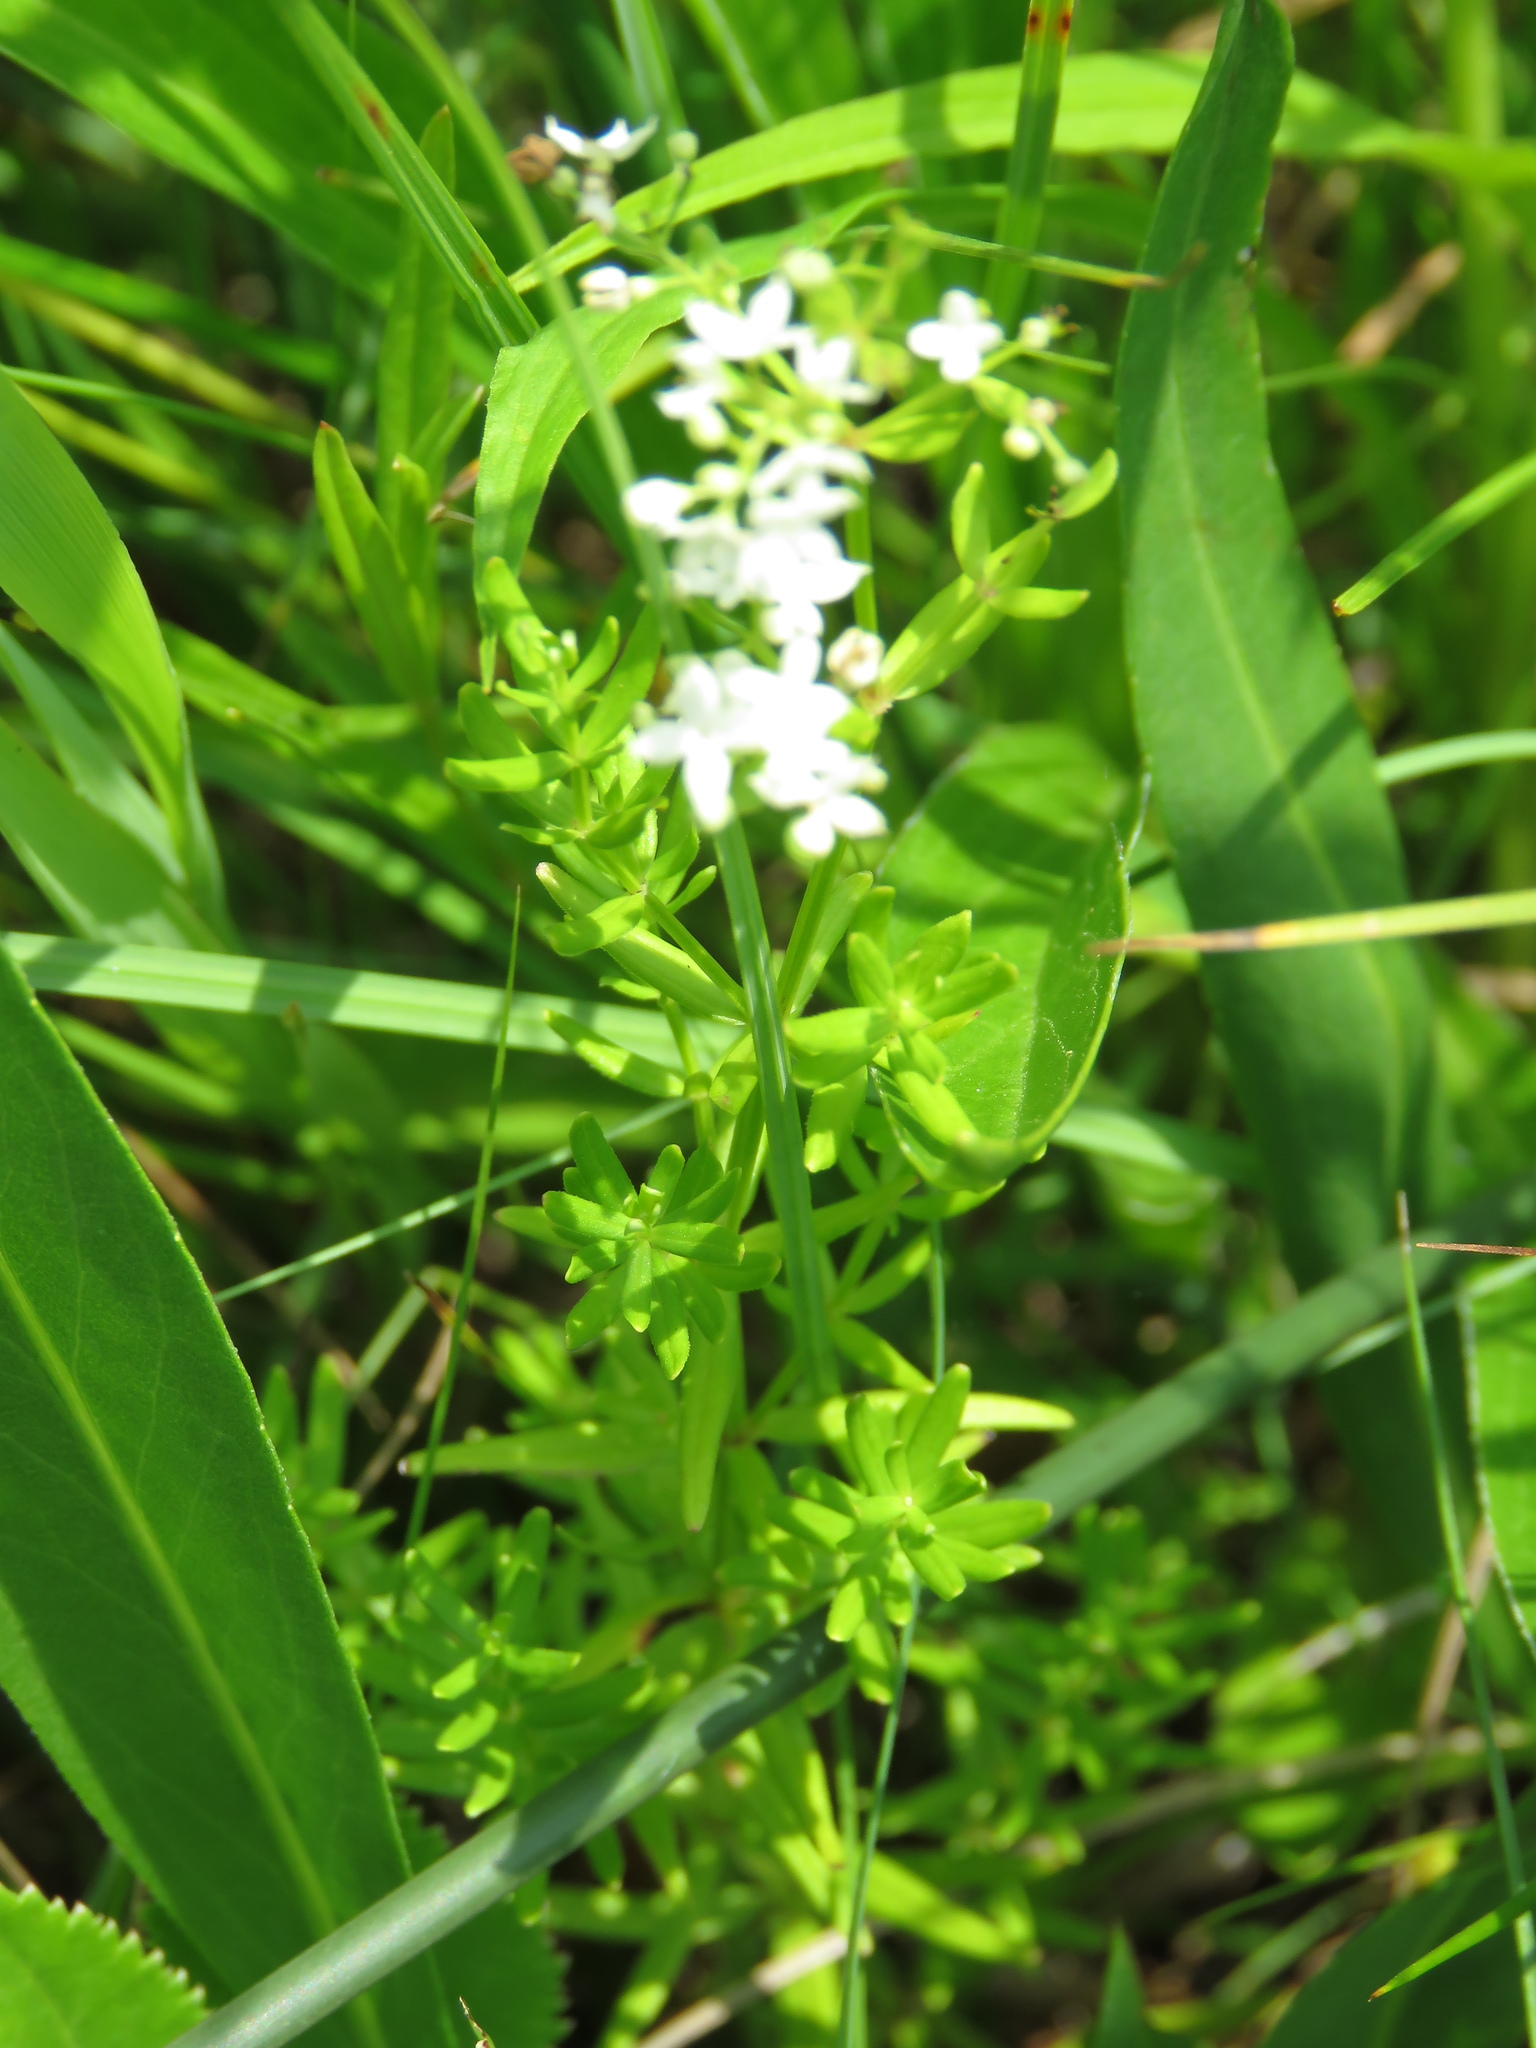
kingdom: Plantae
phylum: Tracheophyta
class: Magnoliopsida
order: Gentianales
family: Rubiaceae
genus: Galium
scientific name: Galium boreale
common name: Northern bedstraw
